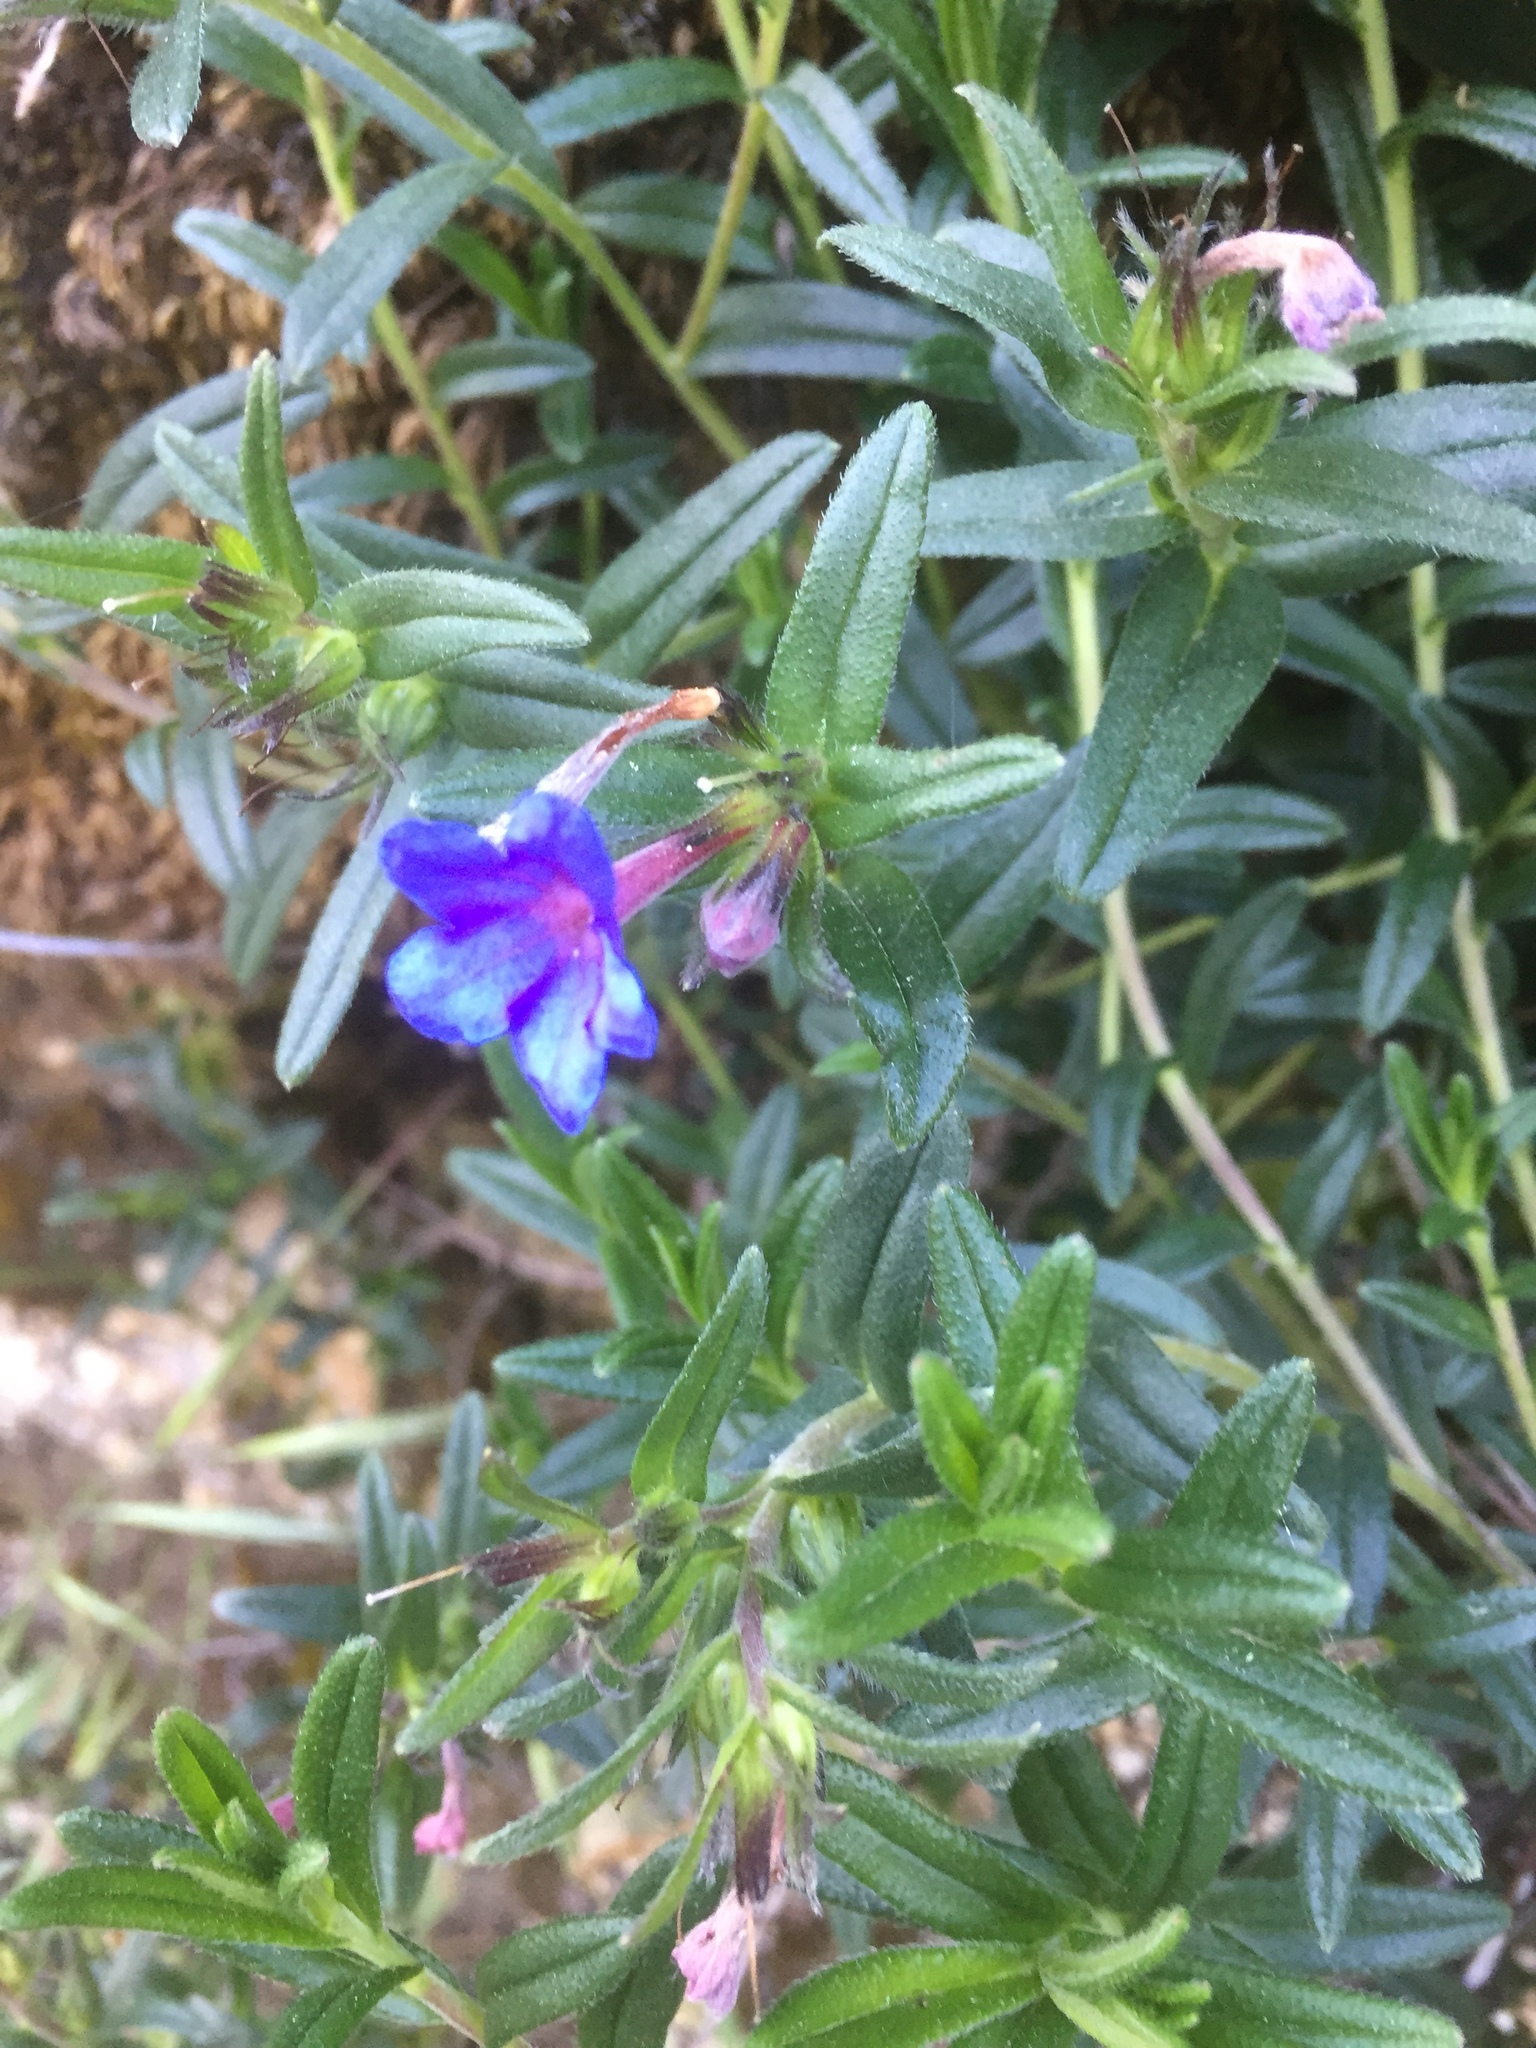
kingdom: Plantae
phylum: Tracheophyta
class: Magnoliopsida
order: Boraginales
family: Boraginaceae
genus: Glandora
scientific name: Glandora prostrata
